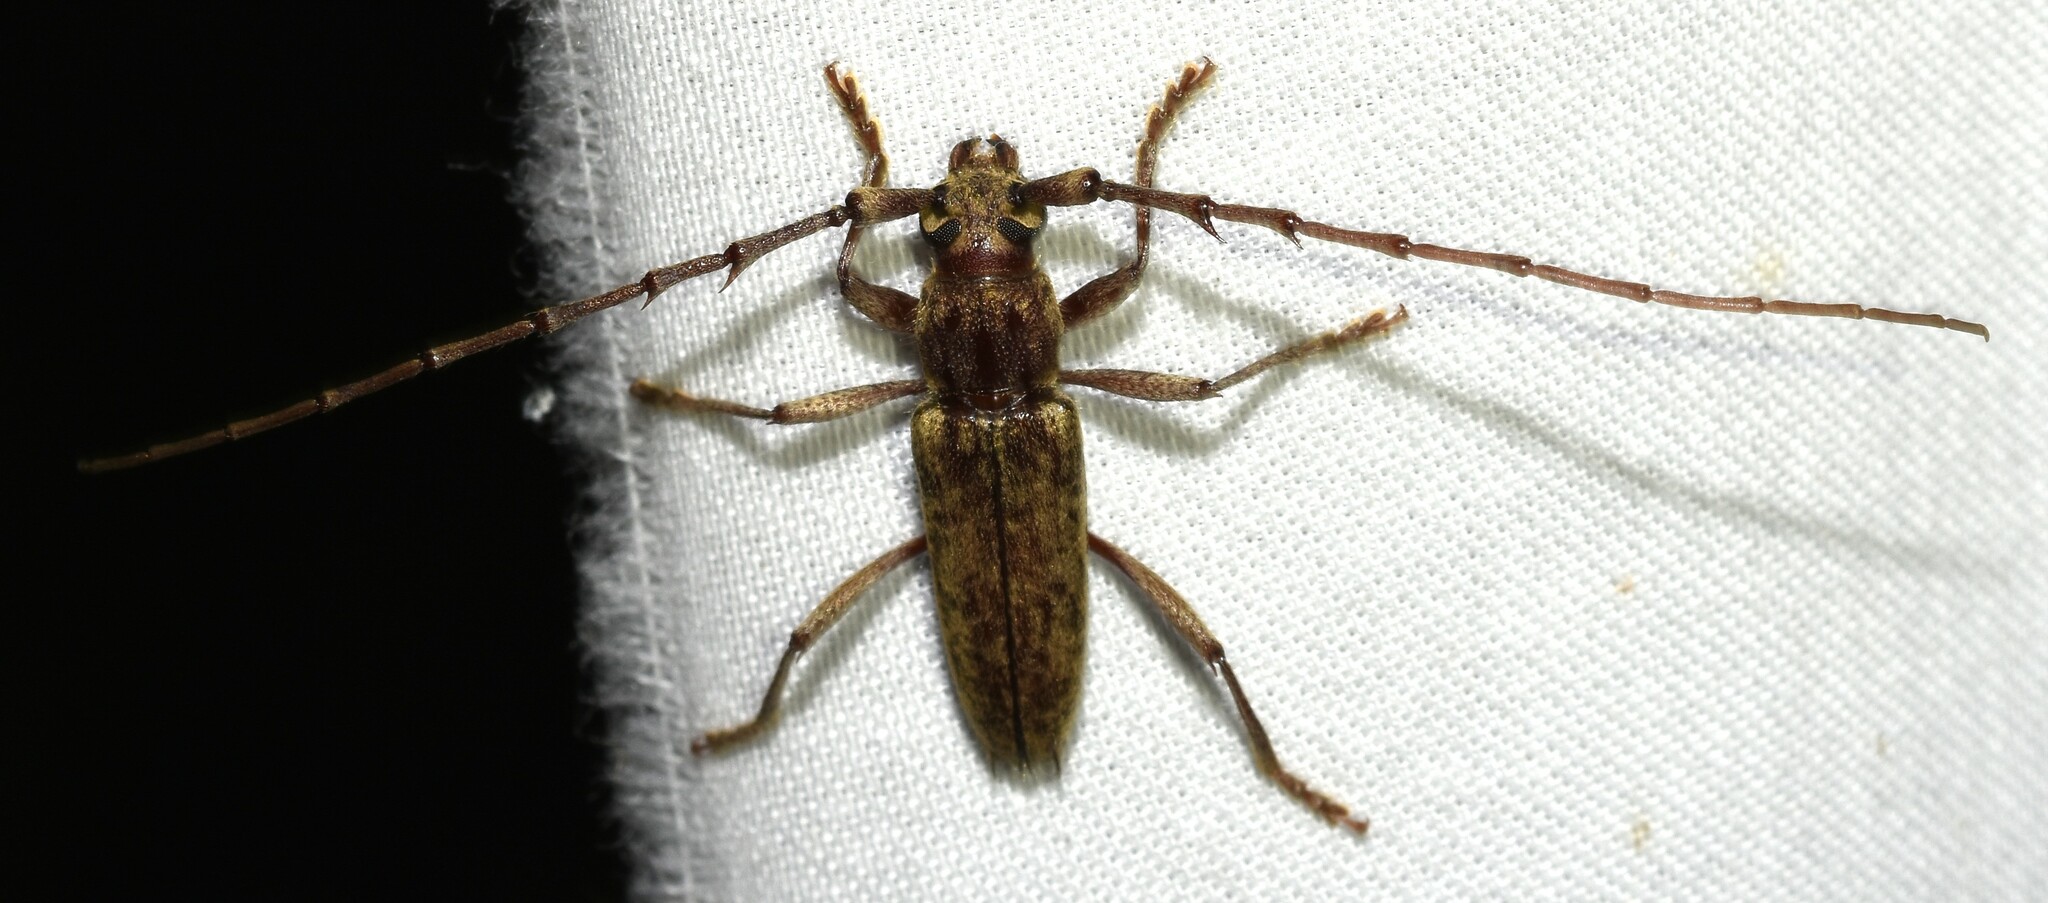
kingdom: Animalia
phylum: Arthropoda
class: Insecta
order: Coleoptera
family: Cerambycidae
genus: Elaphidion
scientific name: Elaphidion mucronatum
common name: Spined oak borer
